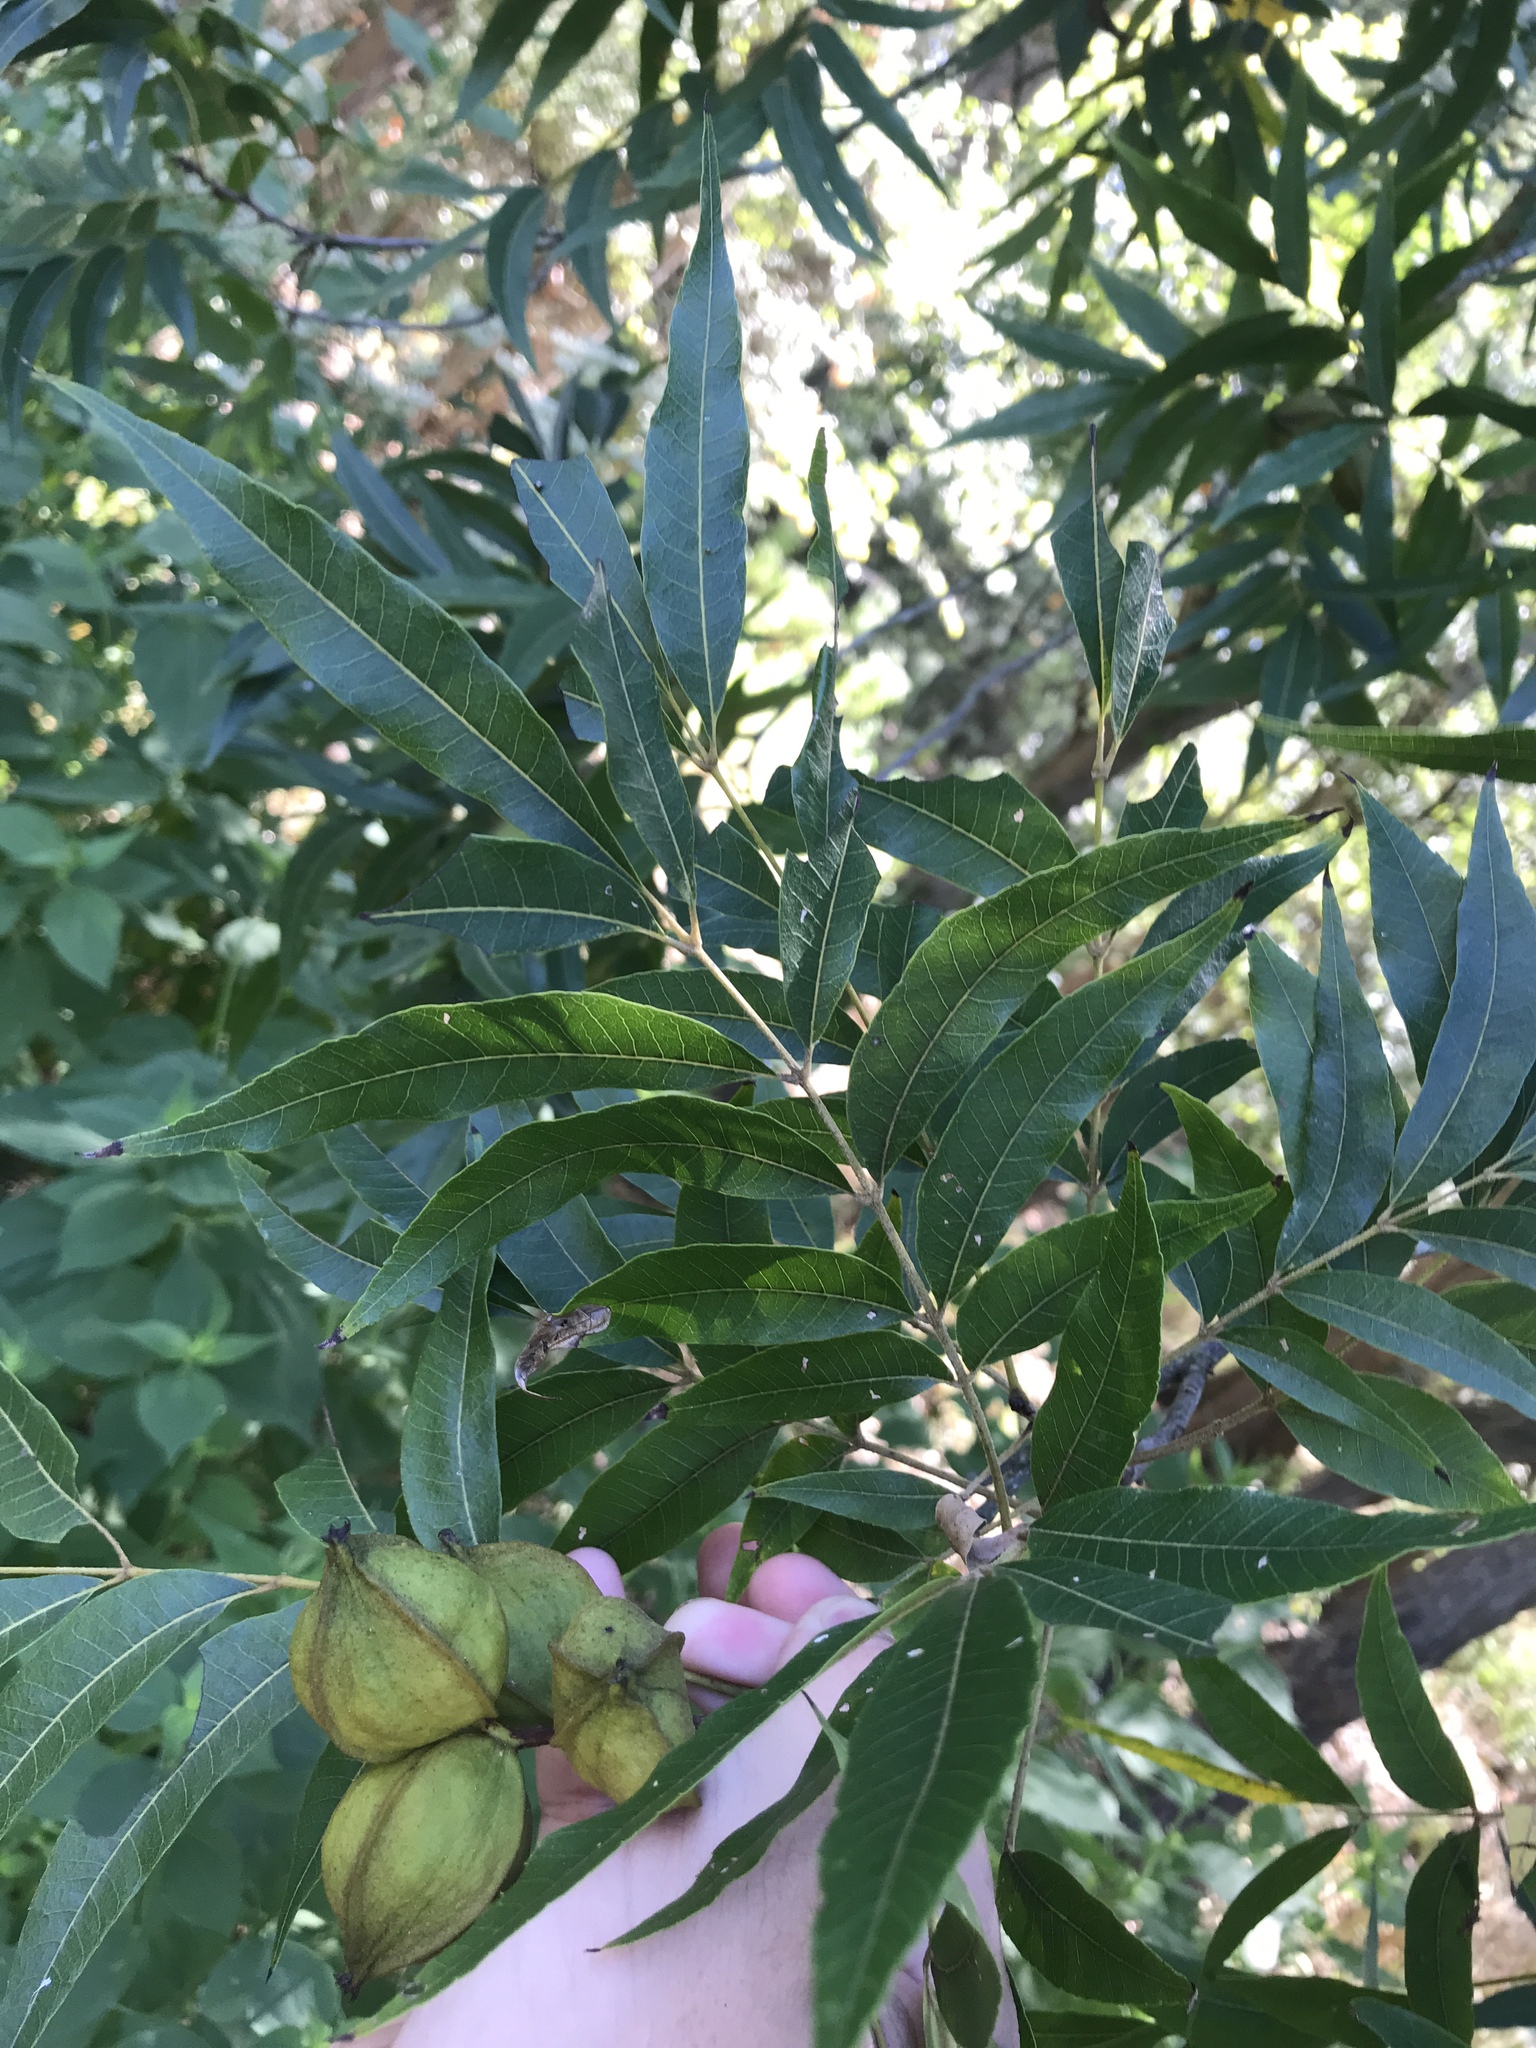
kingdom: Plantae
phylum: Tracheophyta
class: Magnoliopsida
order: Fagales
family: Juglandaceae
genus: Carya
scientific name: Carya aquatica
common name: Water hickory
